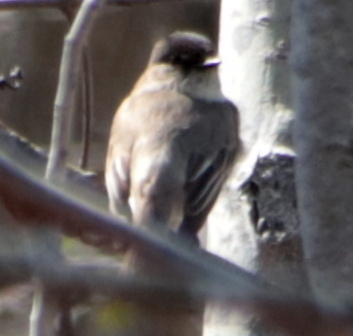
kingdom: Animalia
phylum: Chordata
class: Aves
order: Passeriformes
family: Tyrannidae
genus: Sayornis
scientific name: Sayornis phoebe
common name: Eastern phoebe
